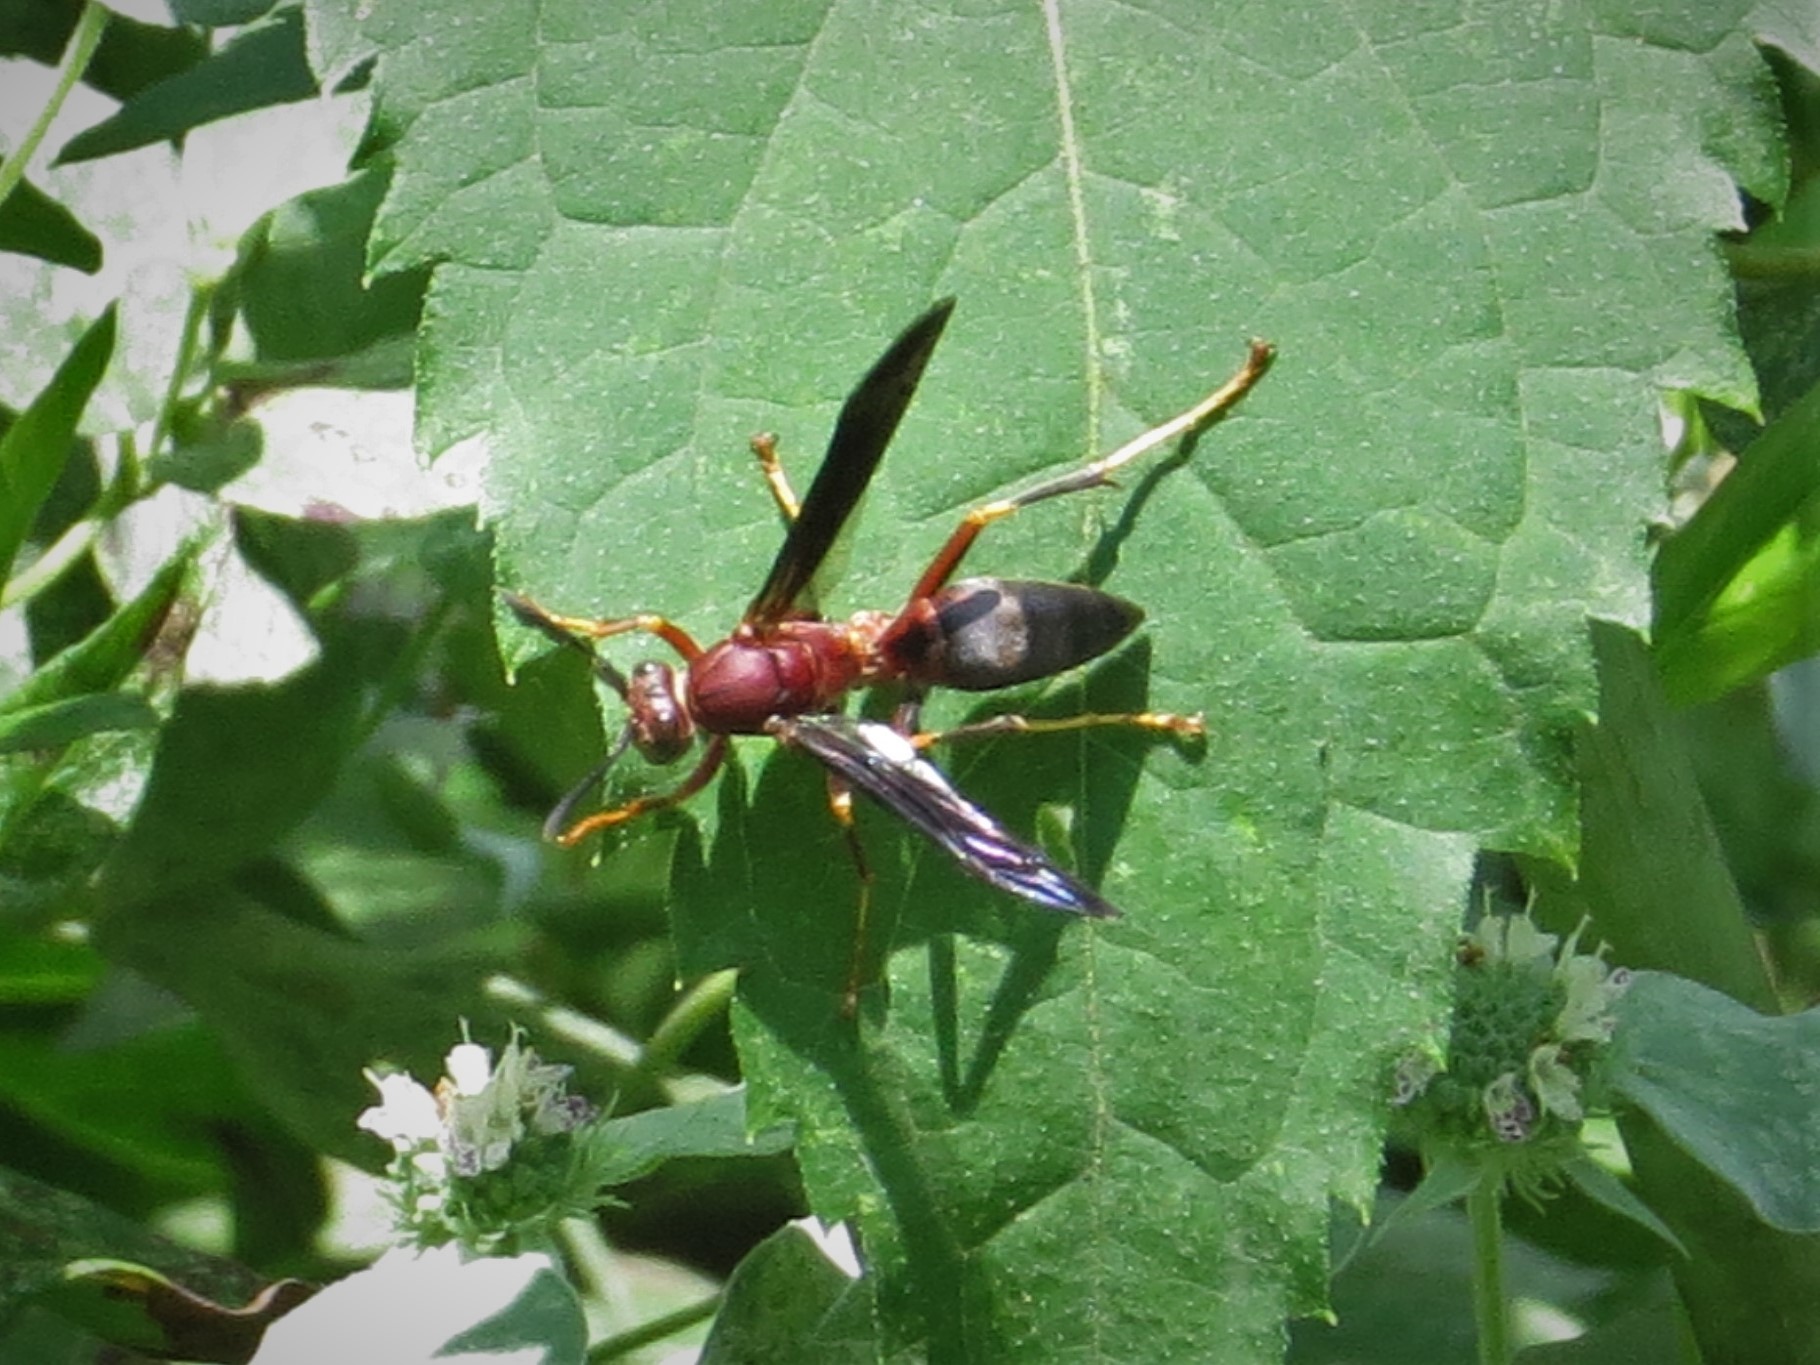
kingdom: Animalia
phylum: Arthropoda
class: Insecta
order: Hymenoptera
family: Eumenidae
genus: Polistes
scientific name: Polistes metricus
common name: Metric paper wasp
